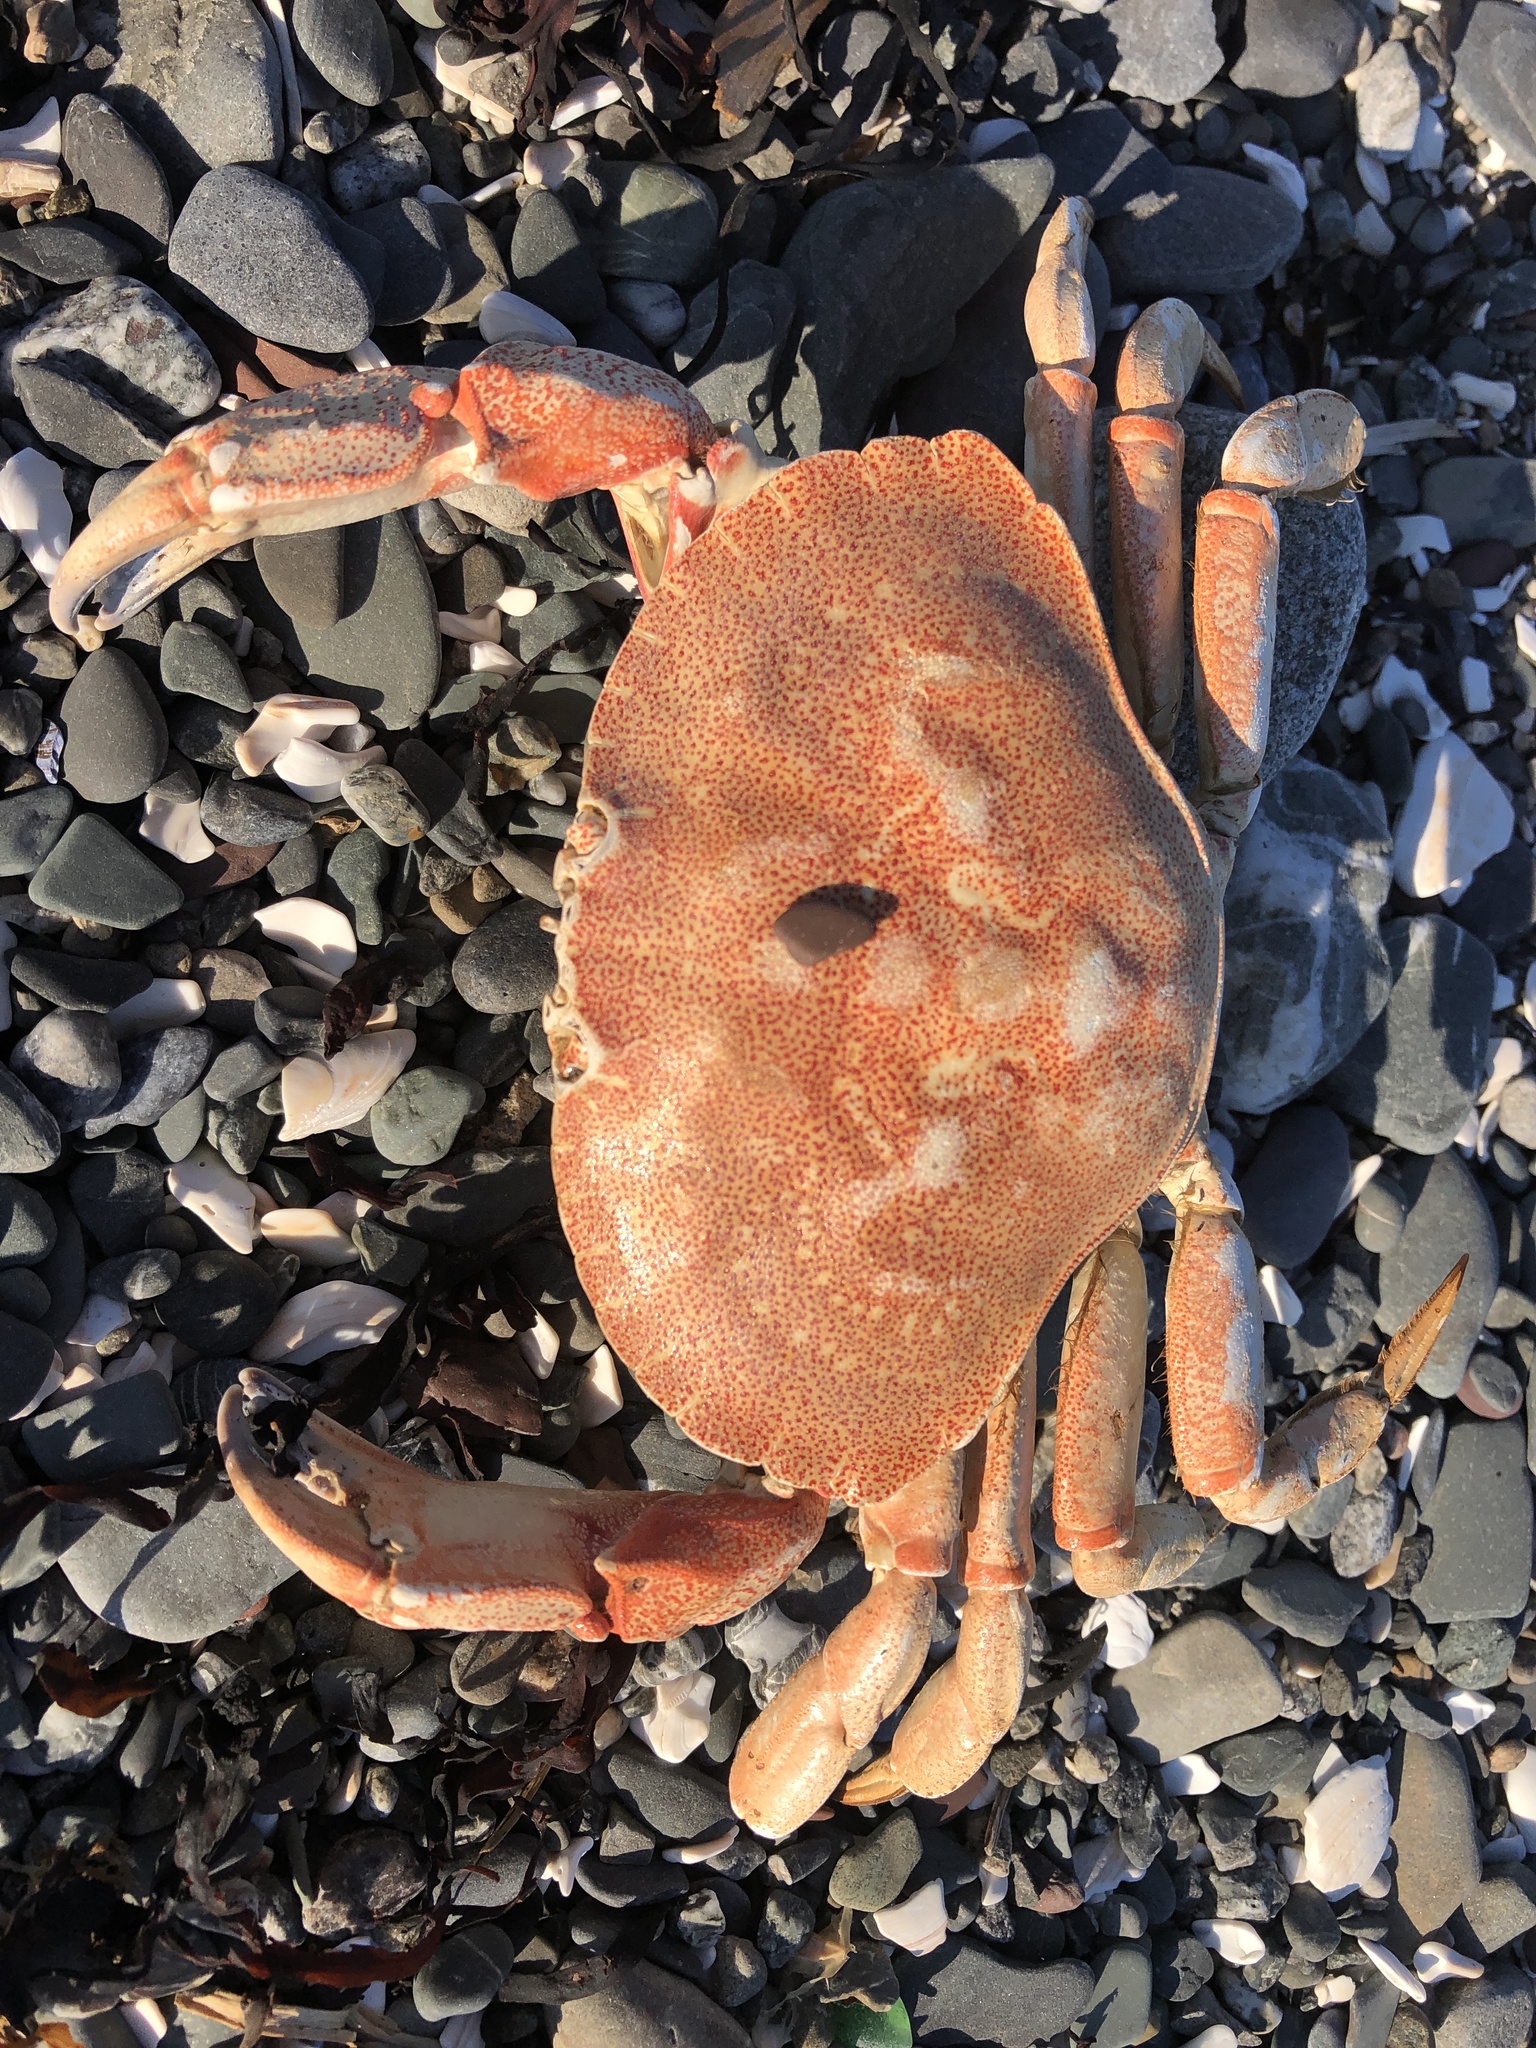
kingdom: Animalia
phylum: Arthropoda
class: Malacostraca
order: Decapoda
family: Cancridae
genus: Cancer
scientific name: Cancer irroratus
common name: Atlantic rock crab
